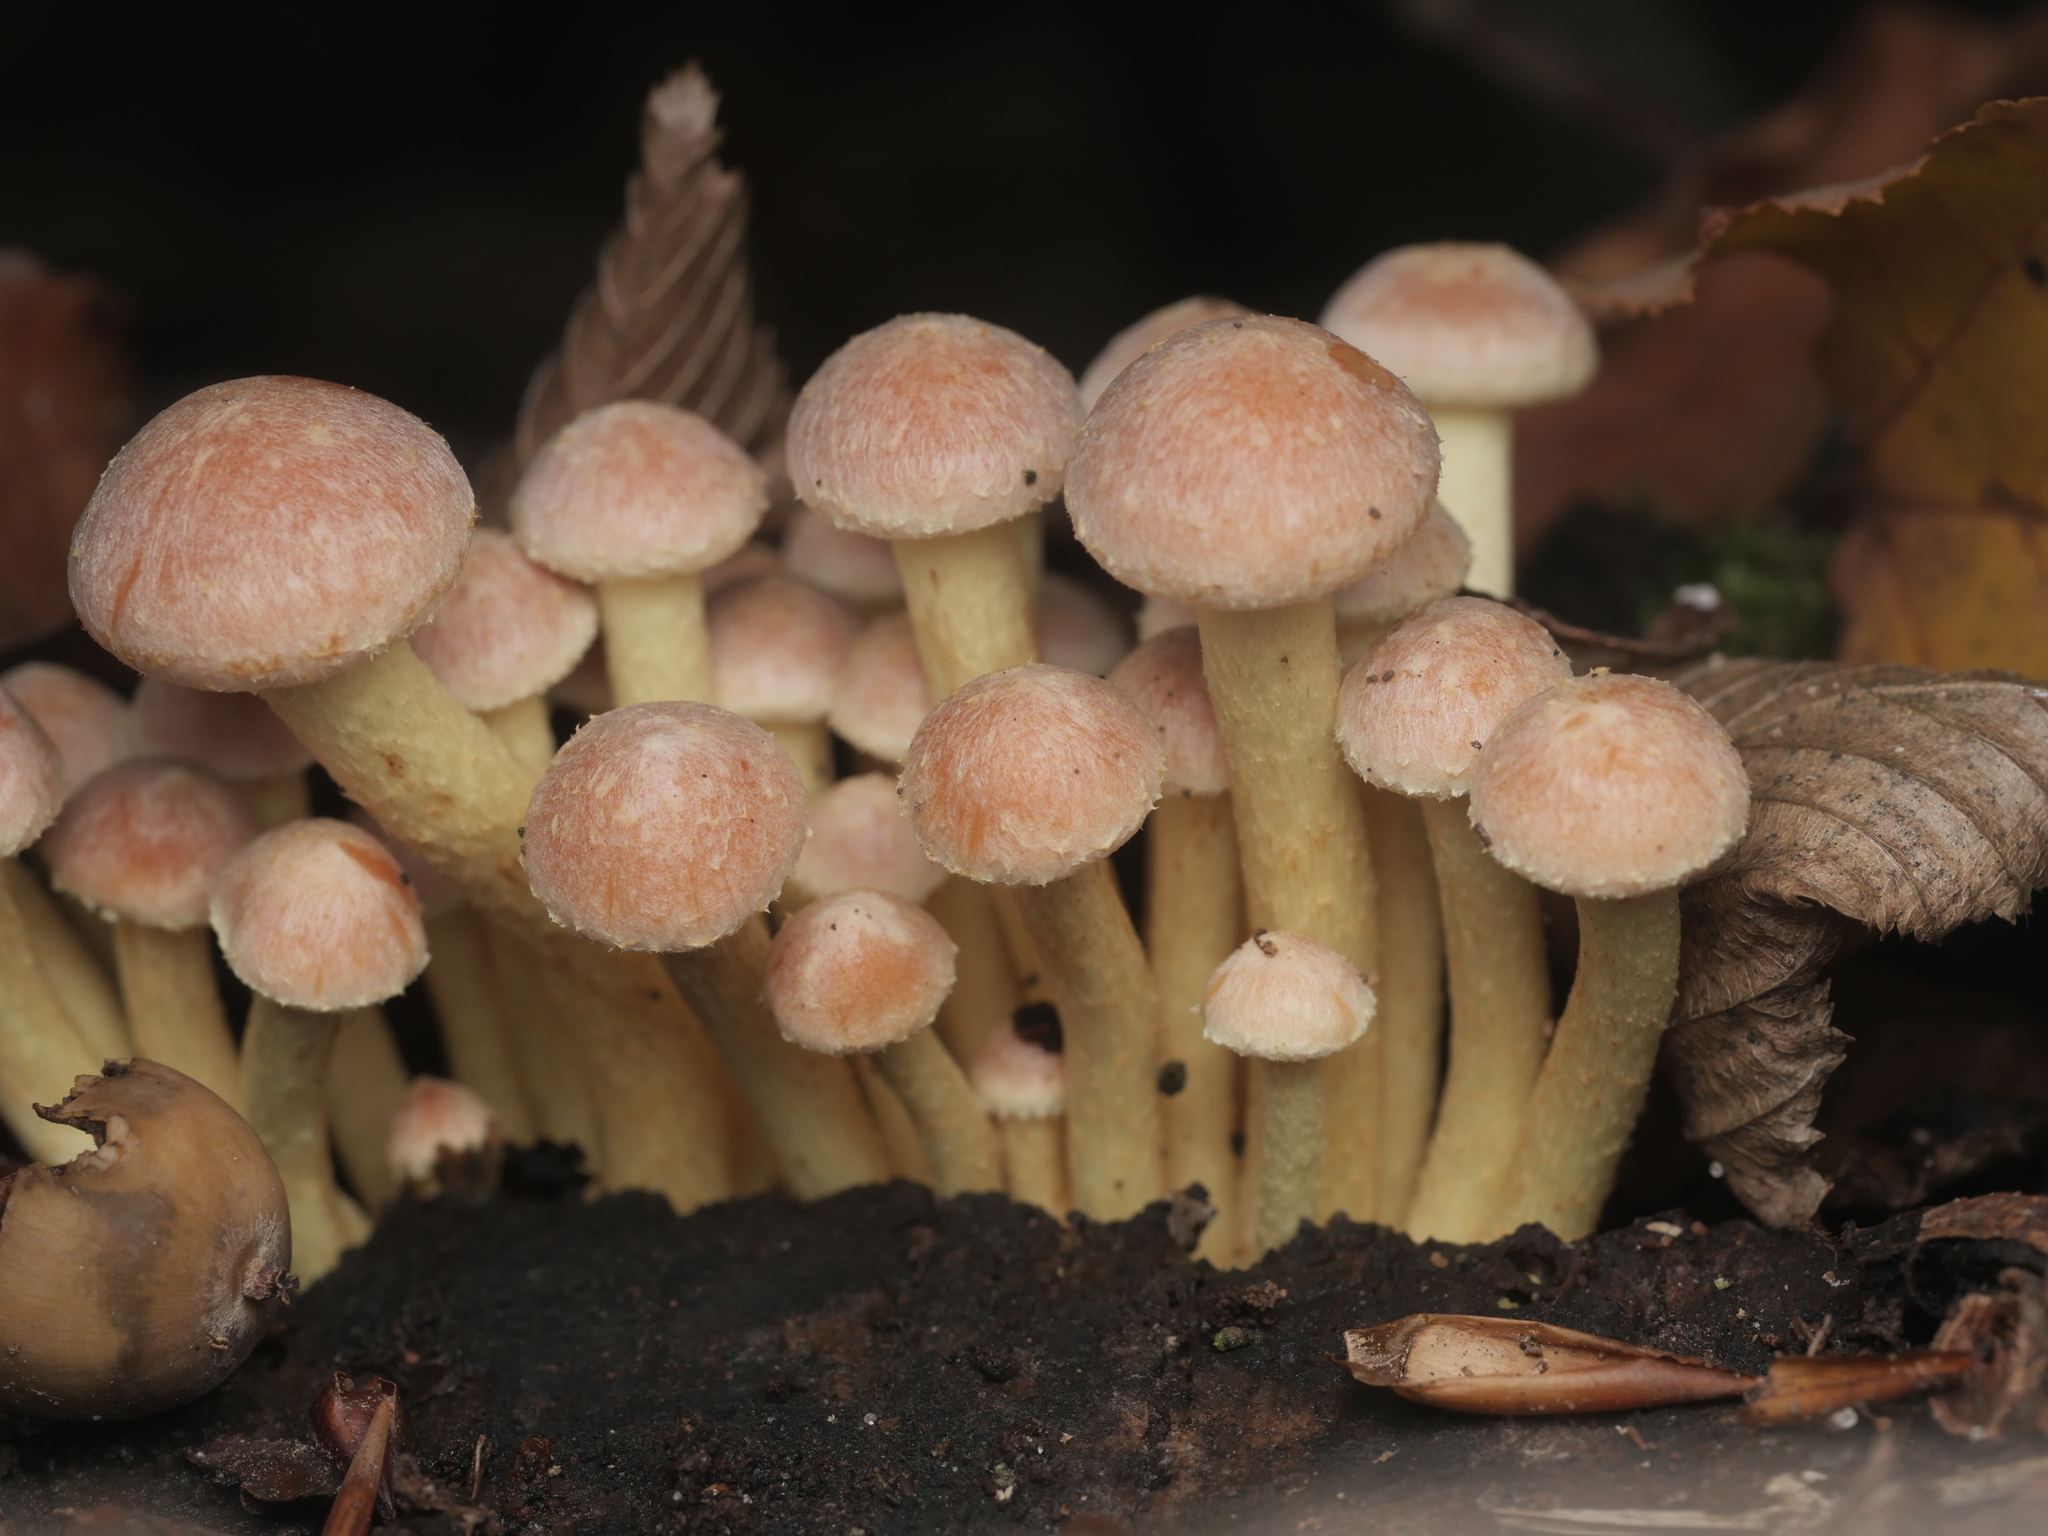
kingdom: Fungi
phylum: Basidiomycota
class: Agaricomycetes
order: Agaricales
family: Strophariaceae
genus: Hypholoma
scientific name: Hypholoma fasciculare
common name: Sulphur tuft
